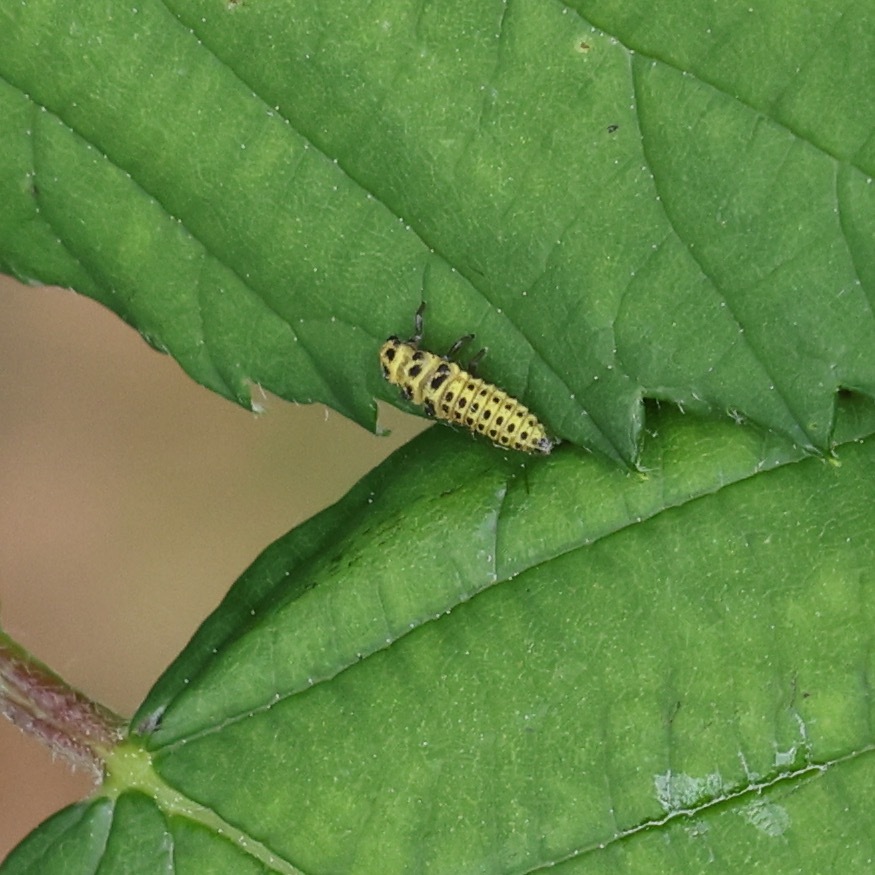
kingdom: Animalia
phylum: Arthropoda
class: Insecta
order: Coleoptera
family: Coccinellidae
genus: Psyllobora
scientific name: Psyllobora vigintiduopunctata
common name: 22-spot ladybird
